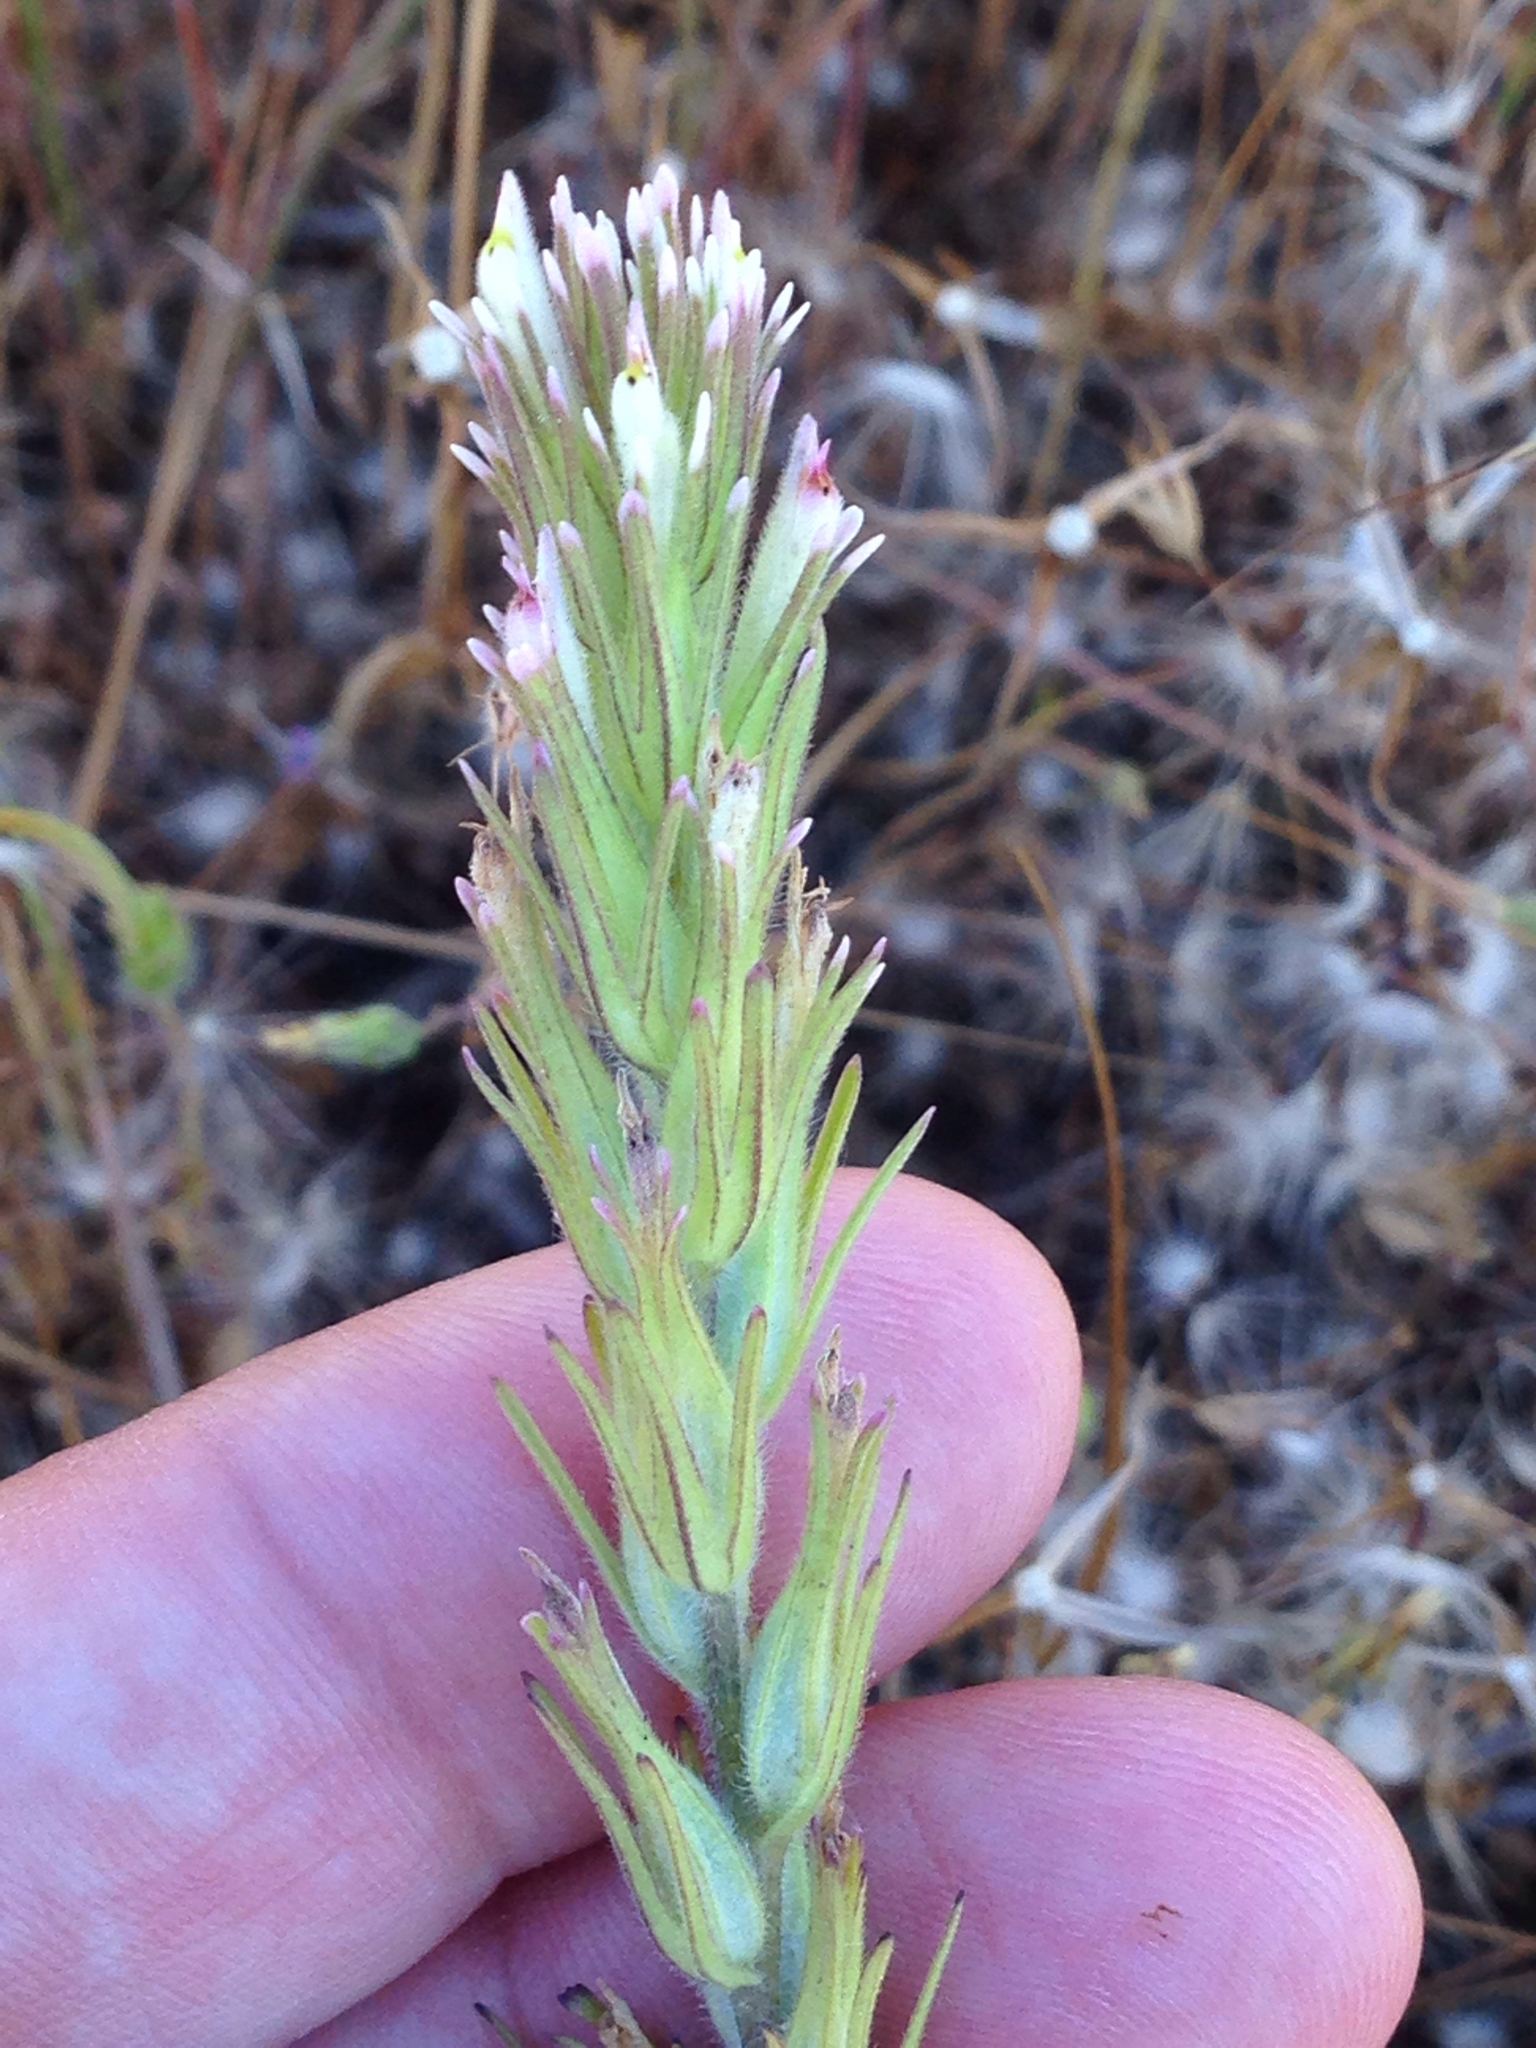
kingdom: Plantae
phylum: Tracheophyta
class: Magnoliopsida
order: Lamiales
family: Orobanchaceae
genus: Castilleja
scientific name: Castilleja attenuata
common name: Valley tassels
